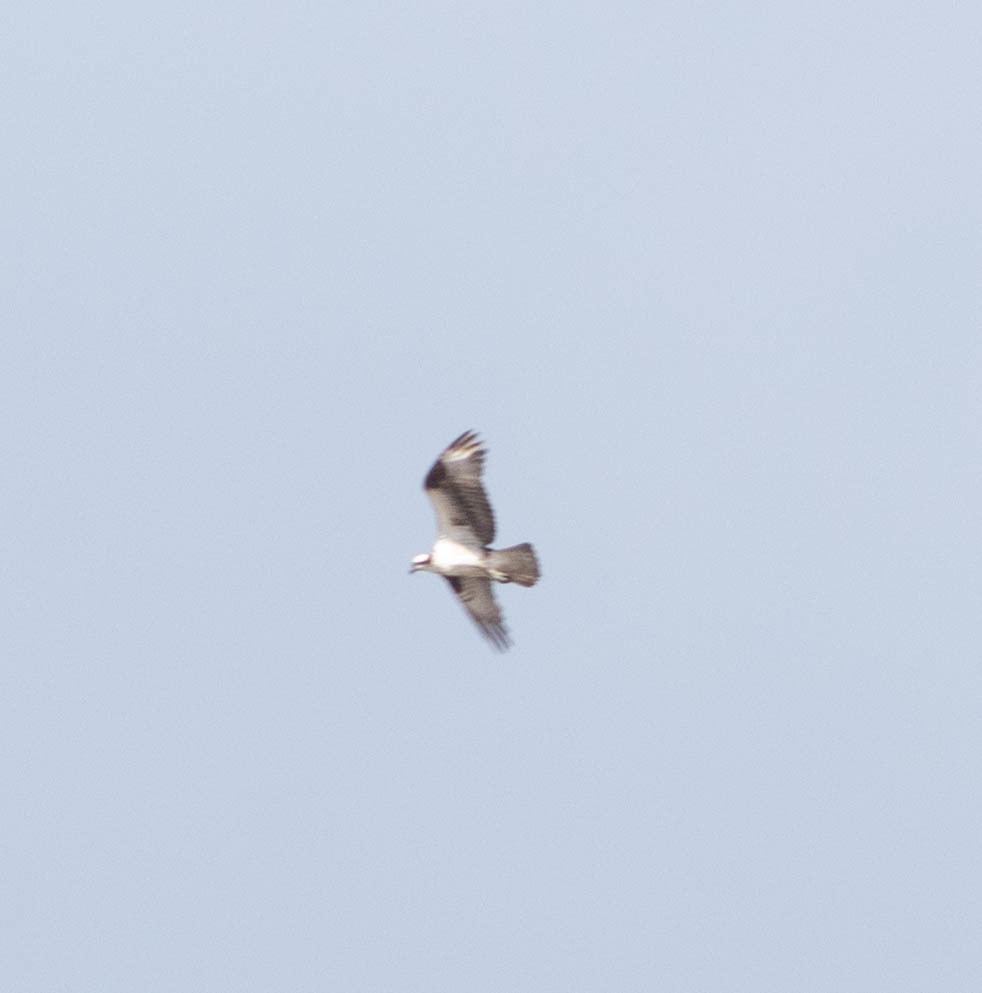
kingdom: Animalia
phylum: Chordata
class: Aves
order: Accipitriformes
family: Pandionidae
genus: Pandion
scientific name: Pandion haliaetus
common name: Osprey
